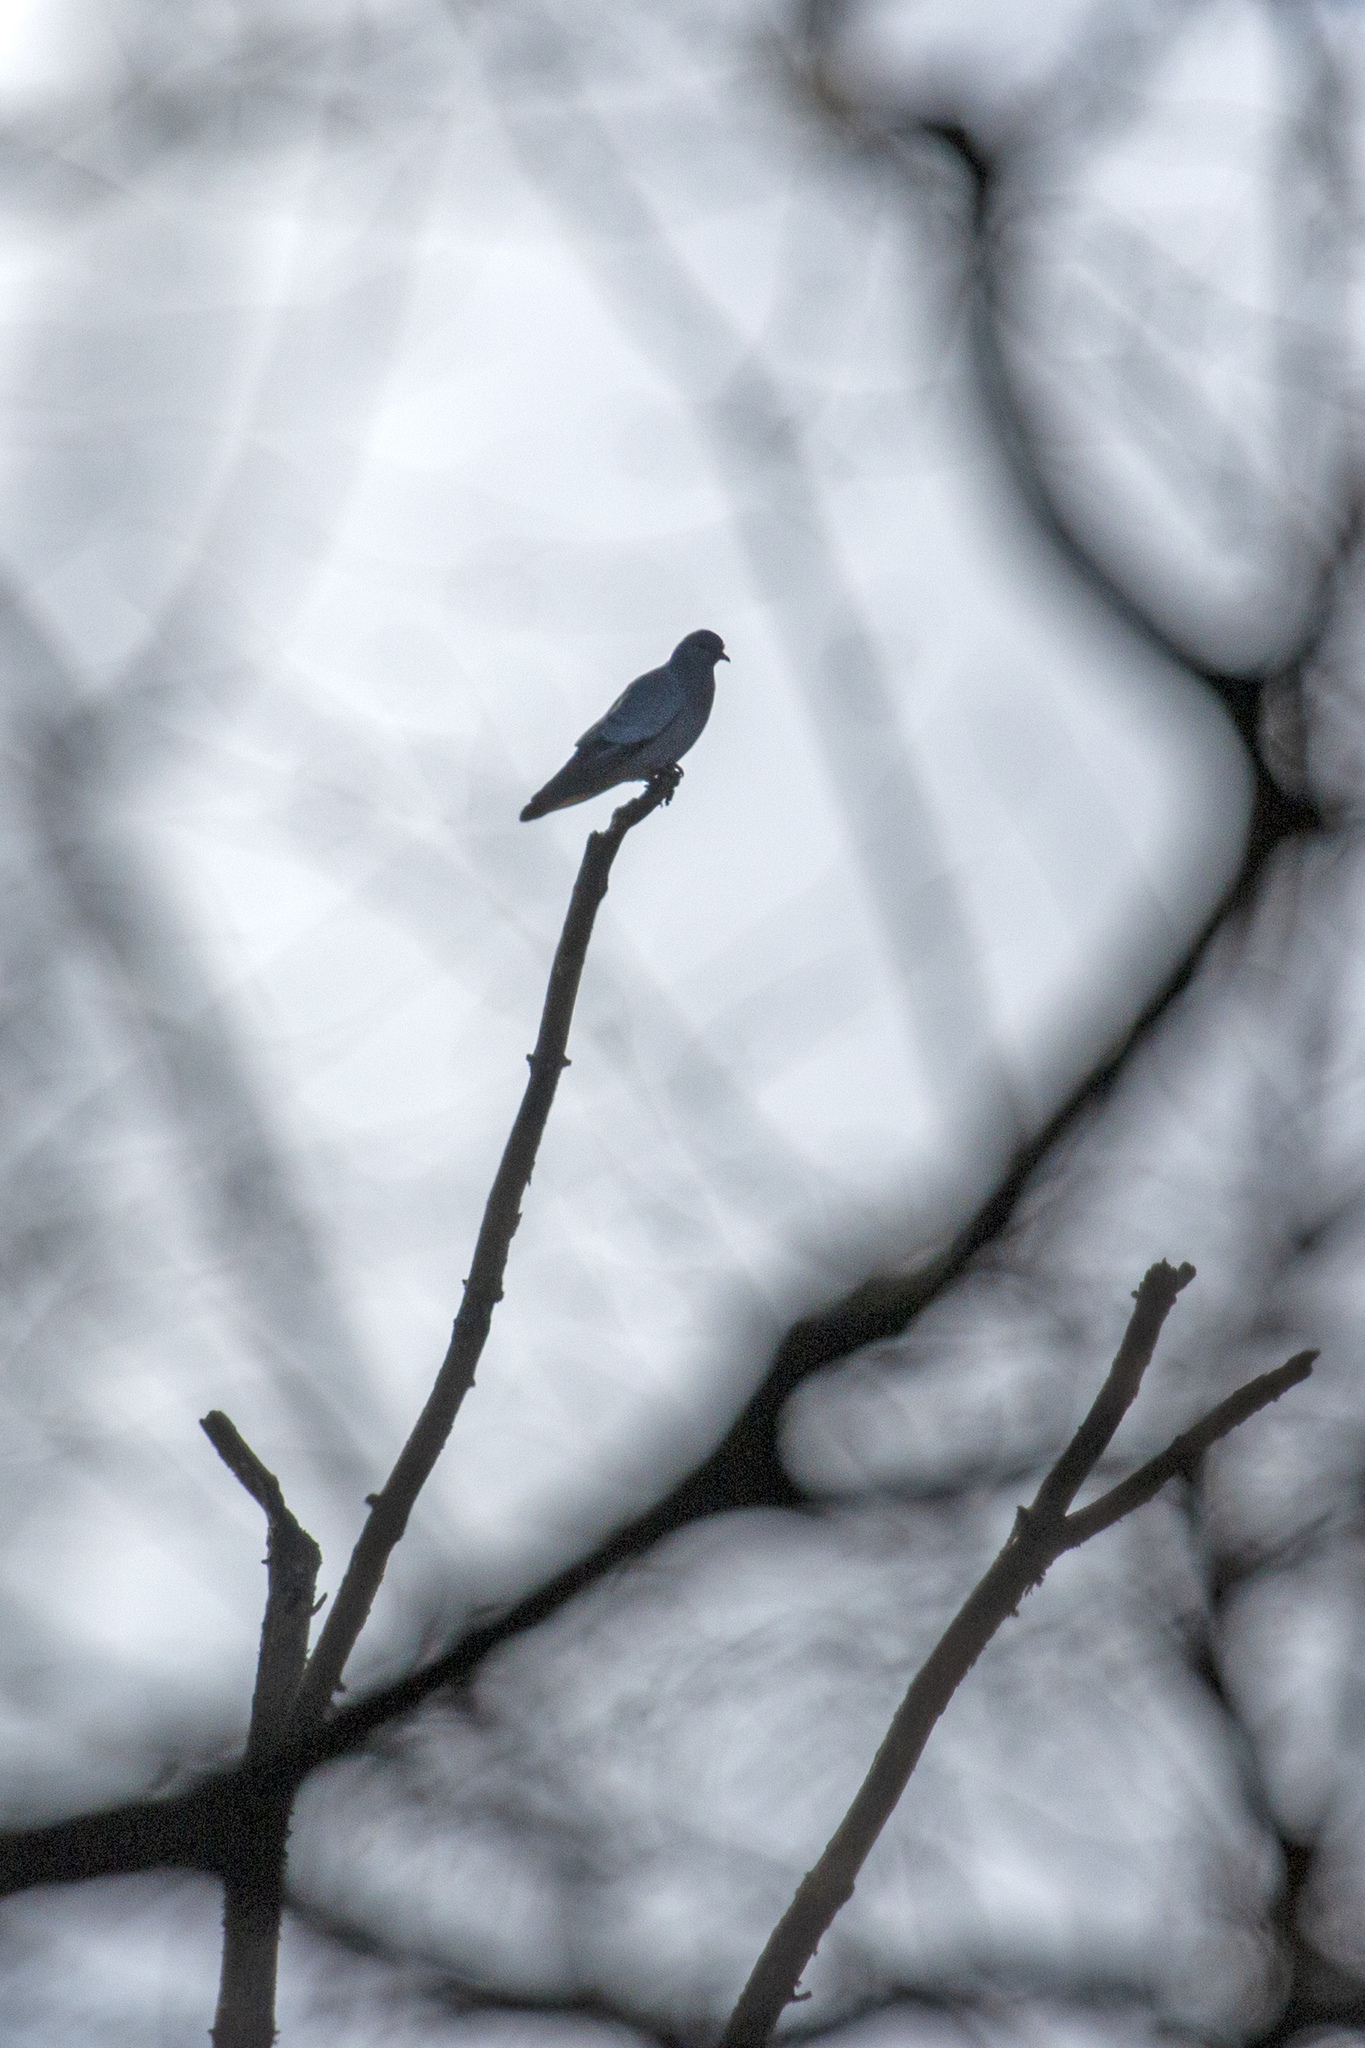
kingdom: Animalia
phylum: Chordata
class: Aves
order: Columbiformes
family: Columbidae
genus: Columba
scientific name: Columba oenas
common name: Stock dove
